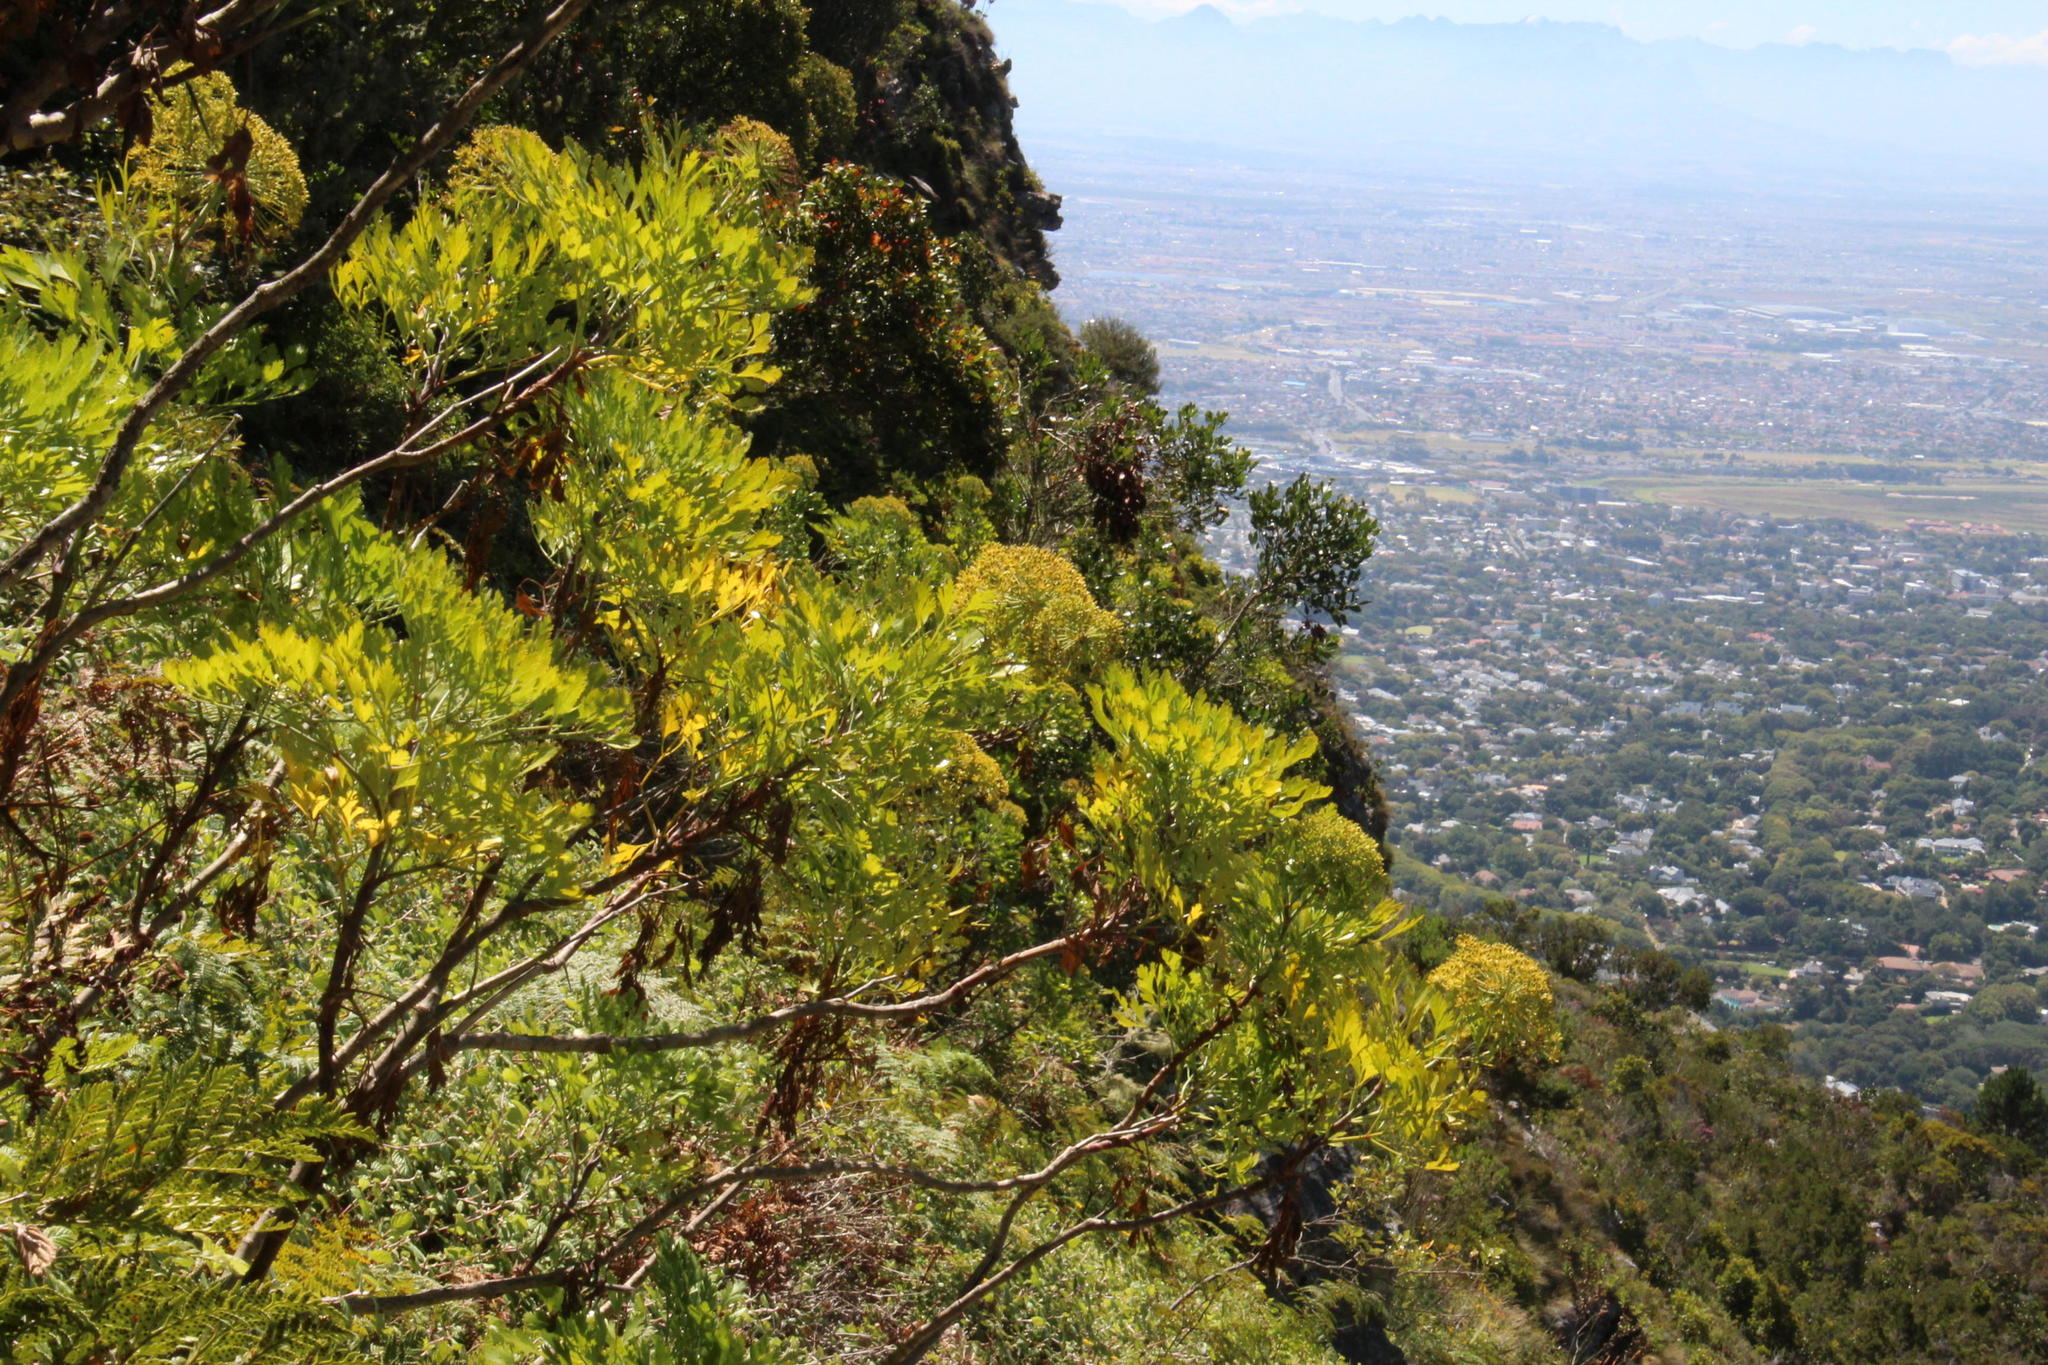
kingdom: Plantae
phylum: Tracheophyta
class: Magnoliopsida
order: Apiales
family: Apiaceae
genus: Notobubon
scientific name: Notobubon galbanum
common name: Blisterbush
